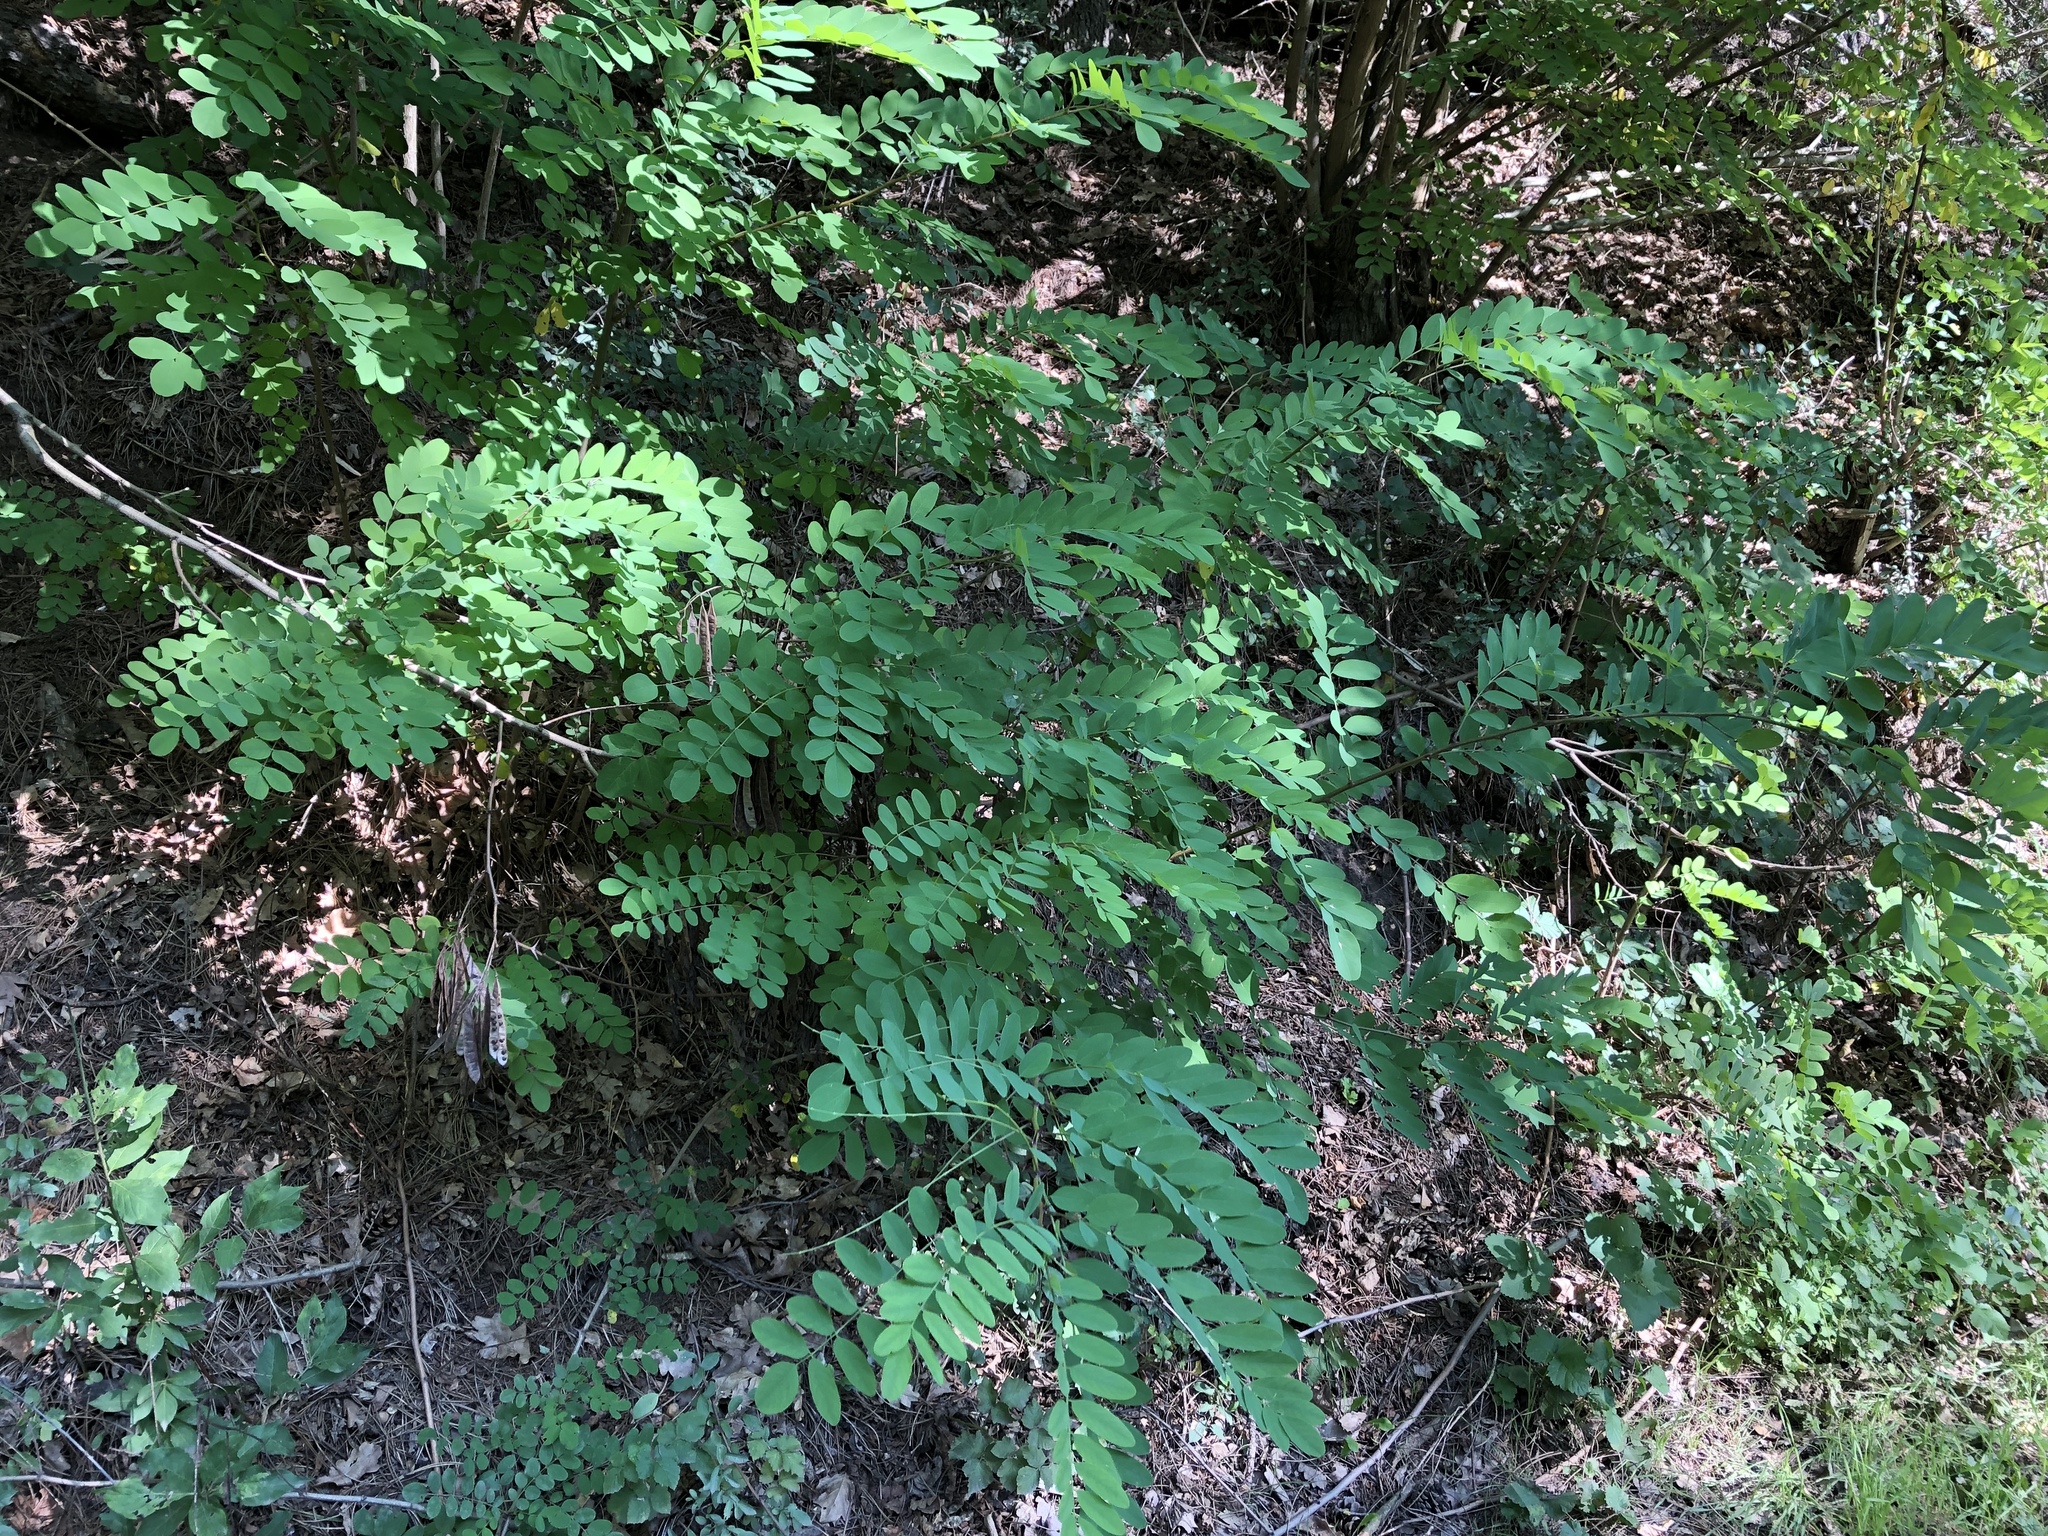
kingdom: Plantae
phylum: Tracheophyta
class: Magnoliopsida
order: Fabales
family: Fabaceae
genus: Robinia
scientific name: Robinia pseudoacacia
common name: Black locust
